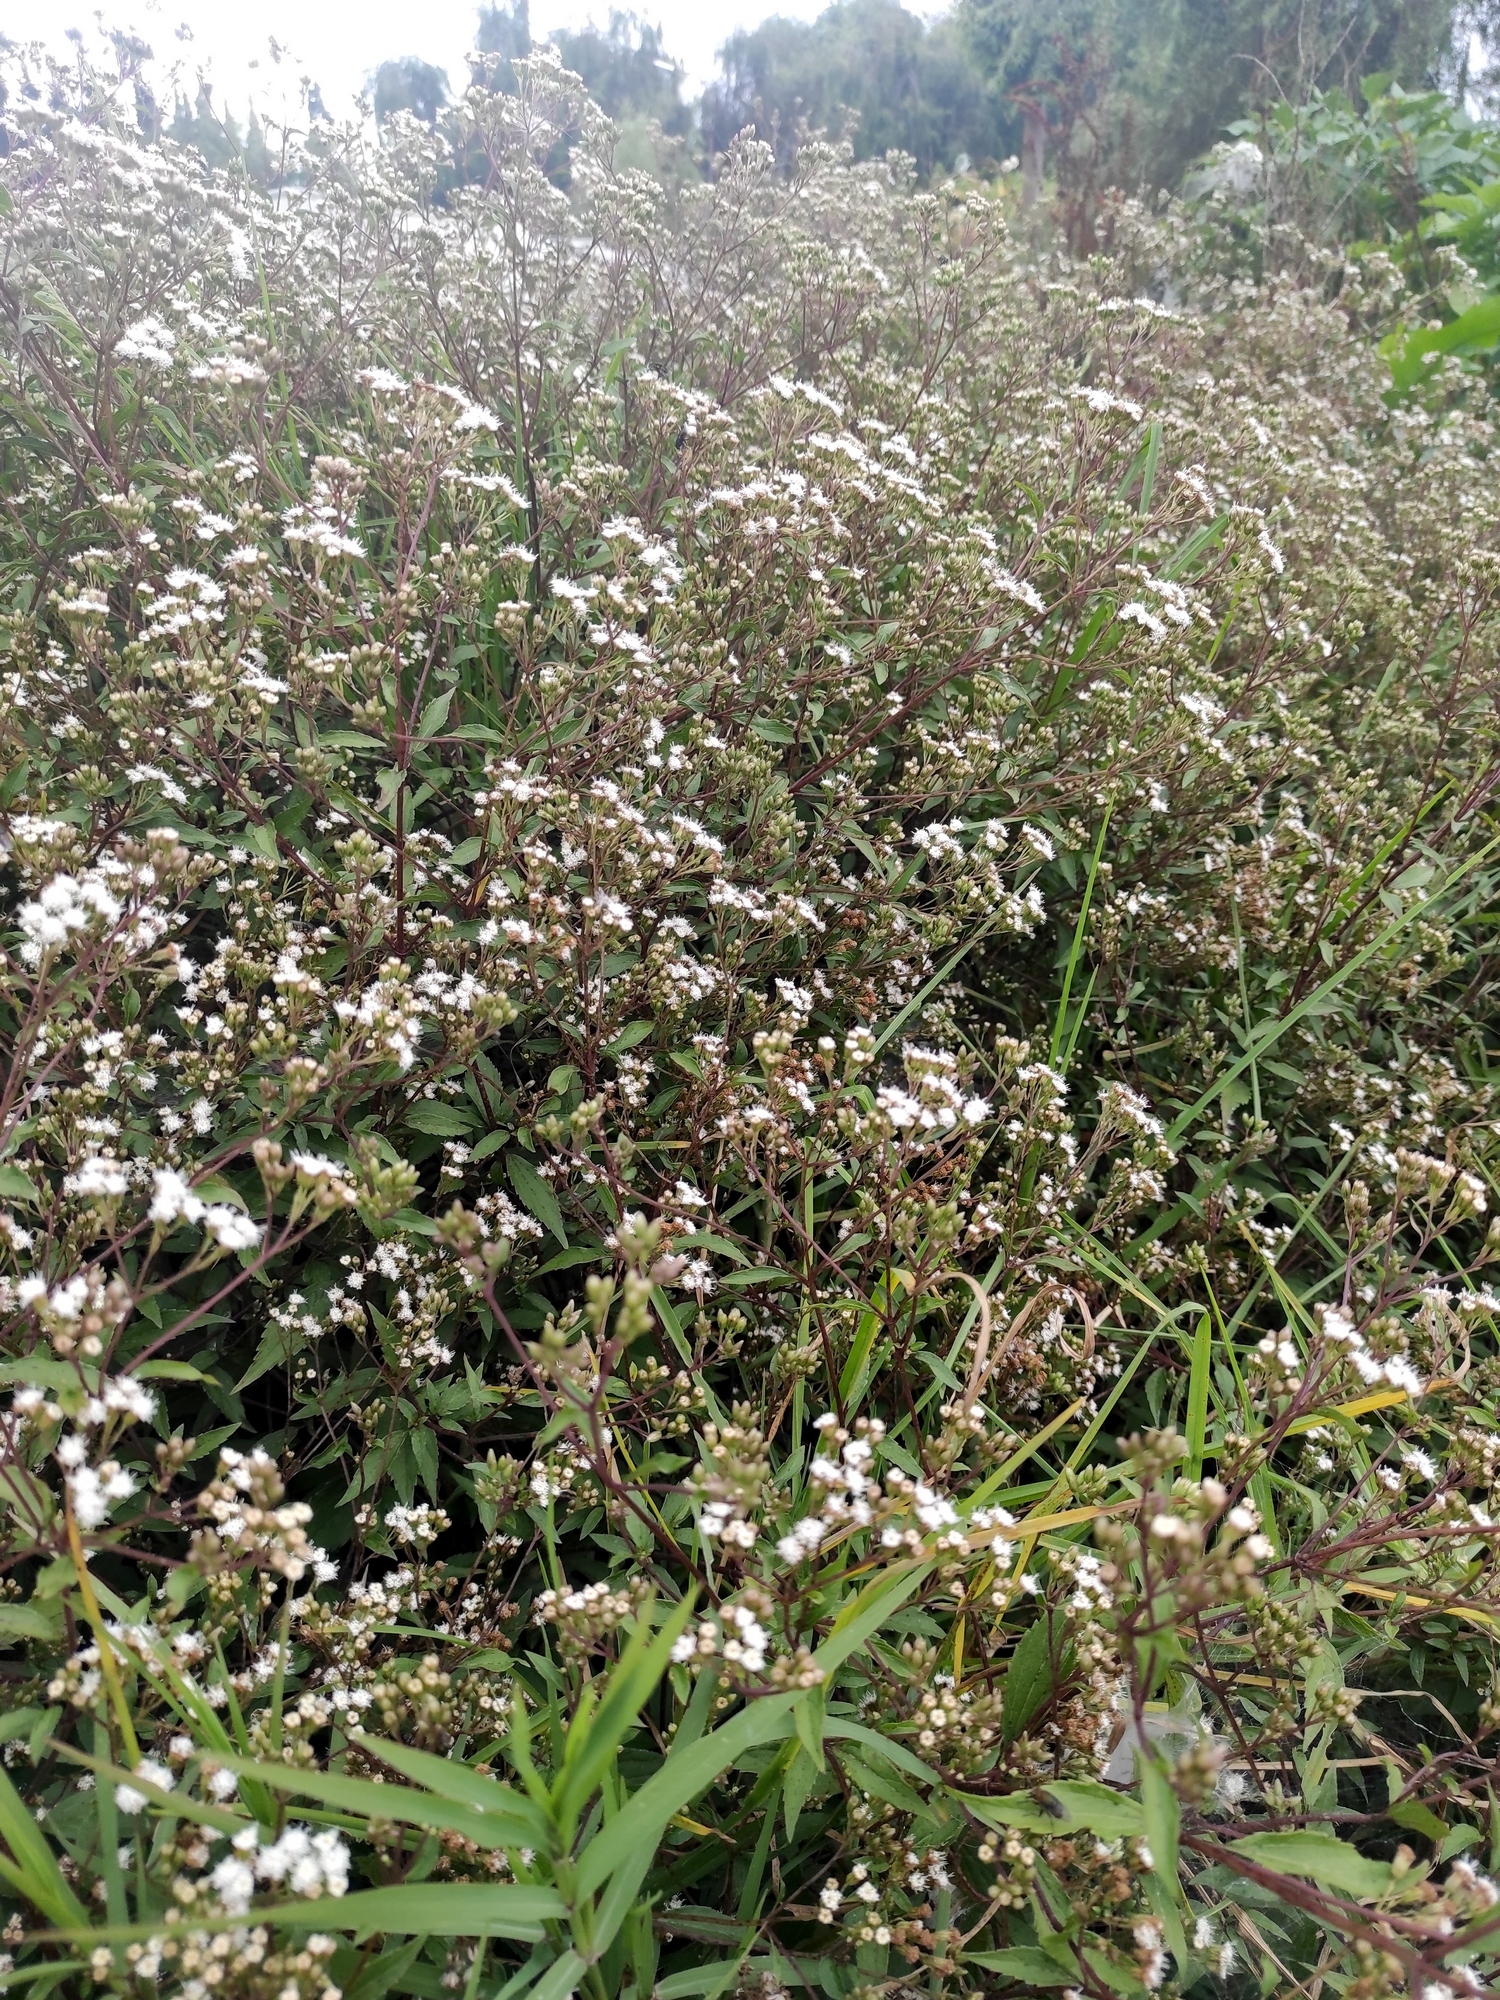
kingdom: Plantae
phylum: Tracheophyta
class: Magnoliopsida
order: Asterales
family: Asteraceae
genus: Ageratina
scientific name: Ageratina riparia
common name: Creeping croftonweed
